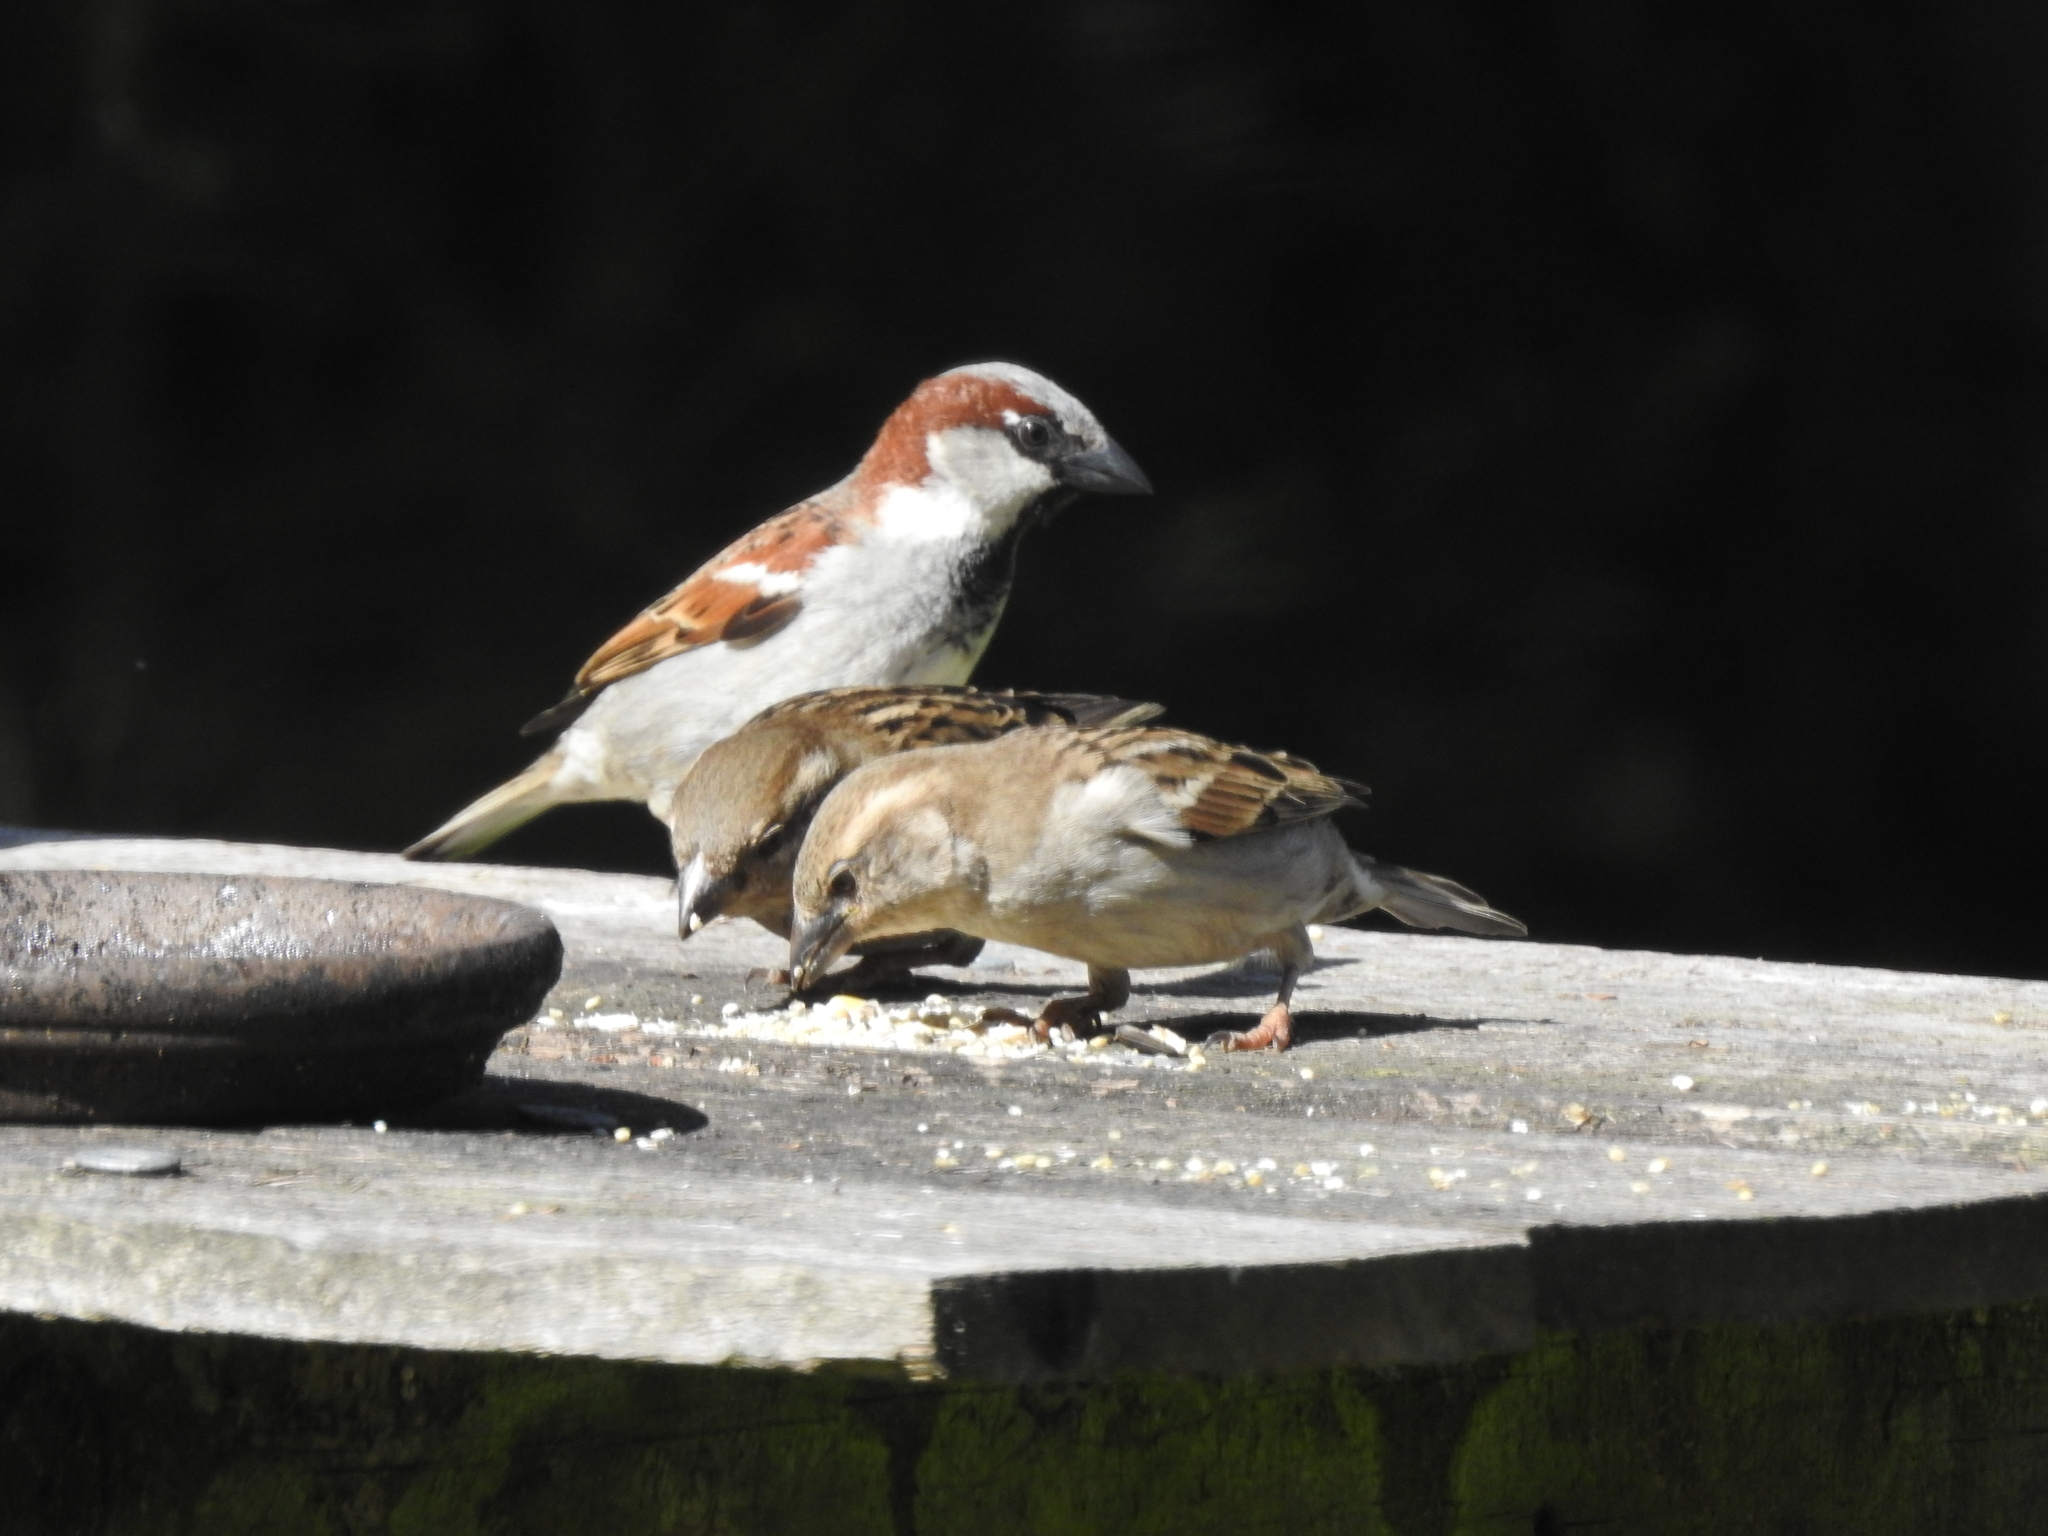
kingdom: Animalia
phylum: Chordata
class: Aves
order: Passeriformes
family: Passeridae
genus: Passer
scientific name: Passer domesticus
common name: House sparrow
